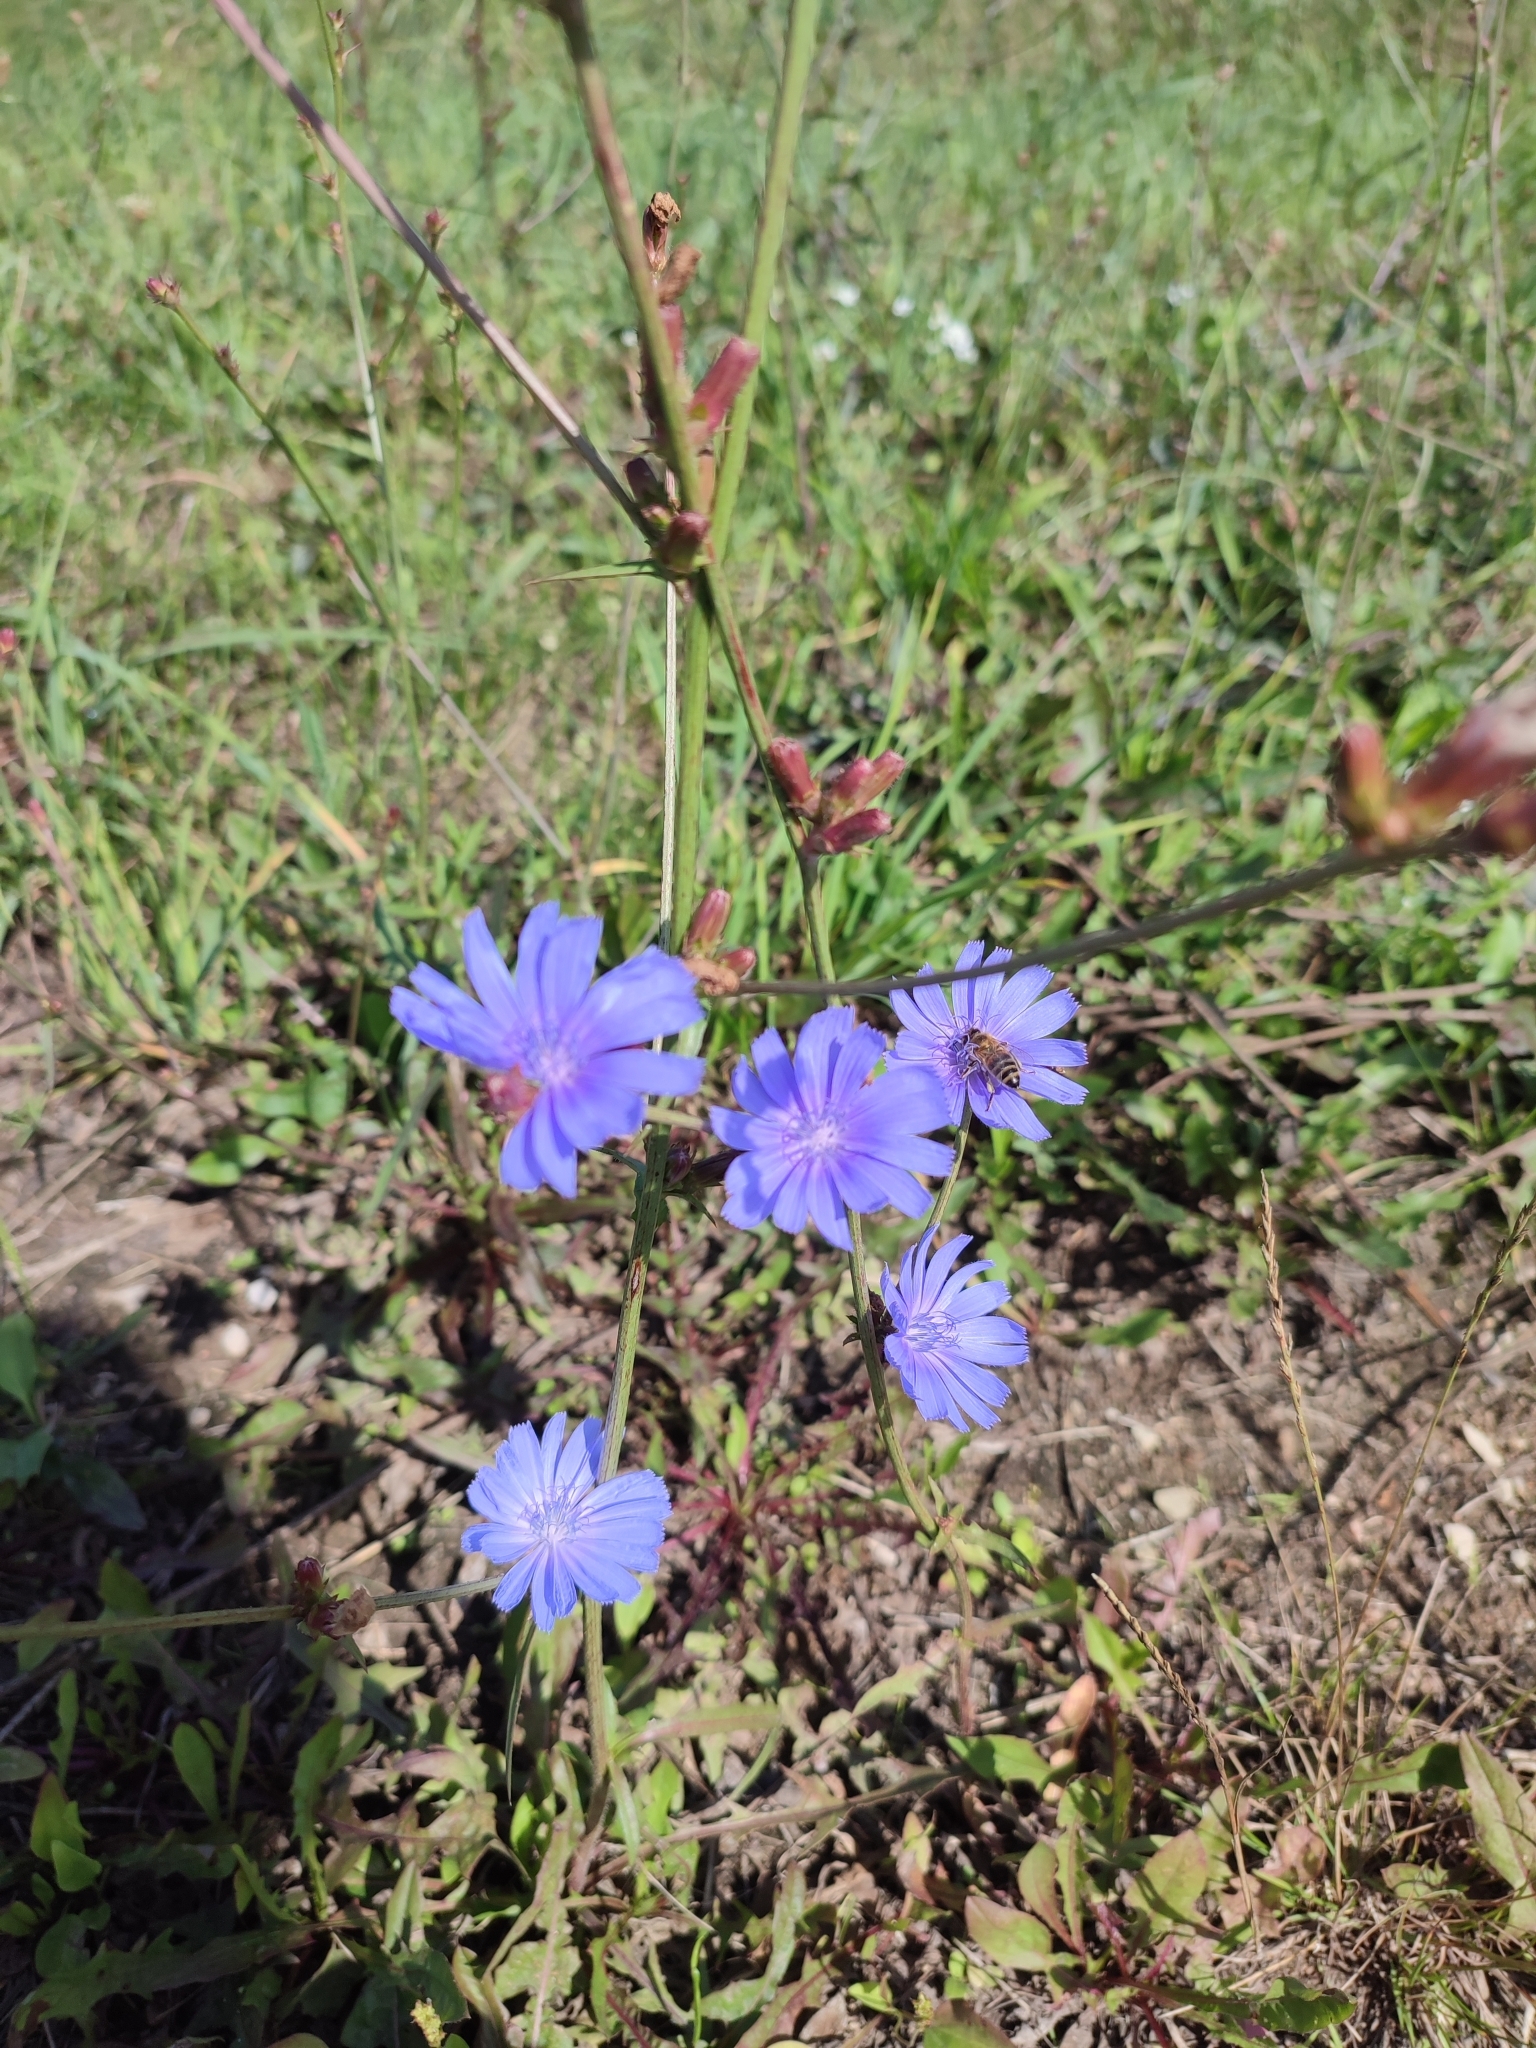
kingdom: Plantae
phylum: Tracheophyta
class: Magnoliopsida
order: Asterales
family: Asteraceae
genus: Cichorium
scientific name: Cichorium intybus
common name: Chicory
